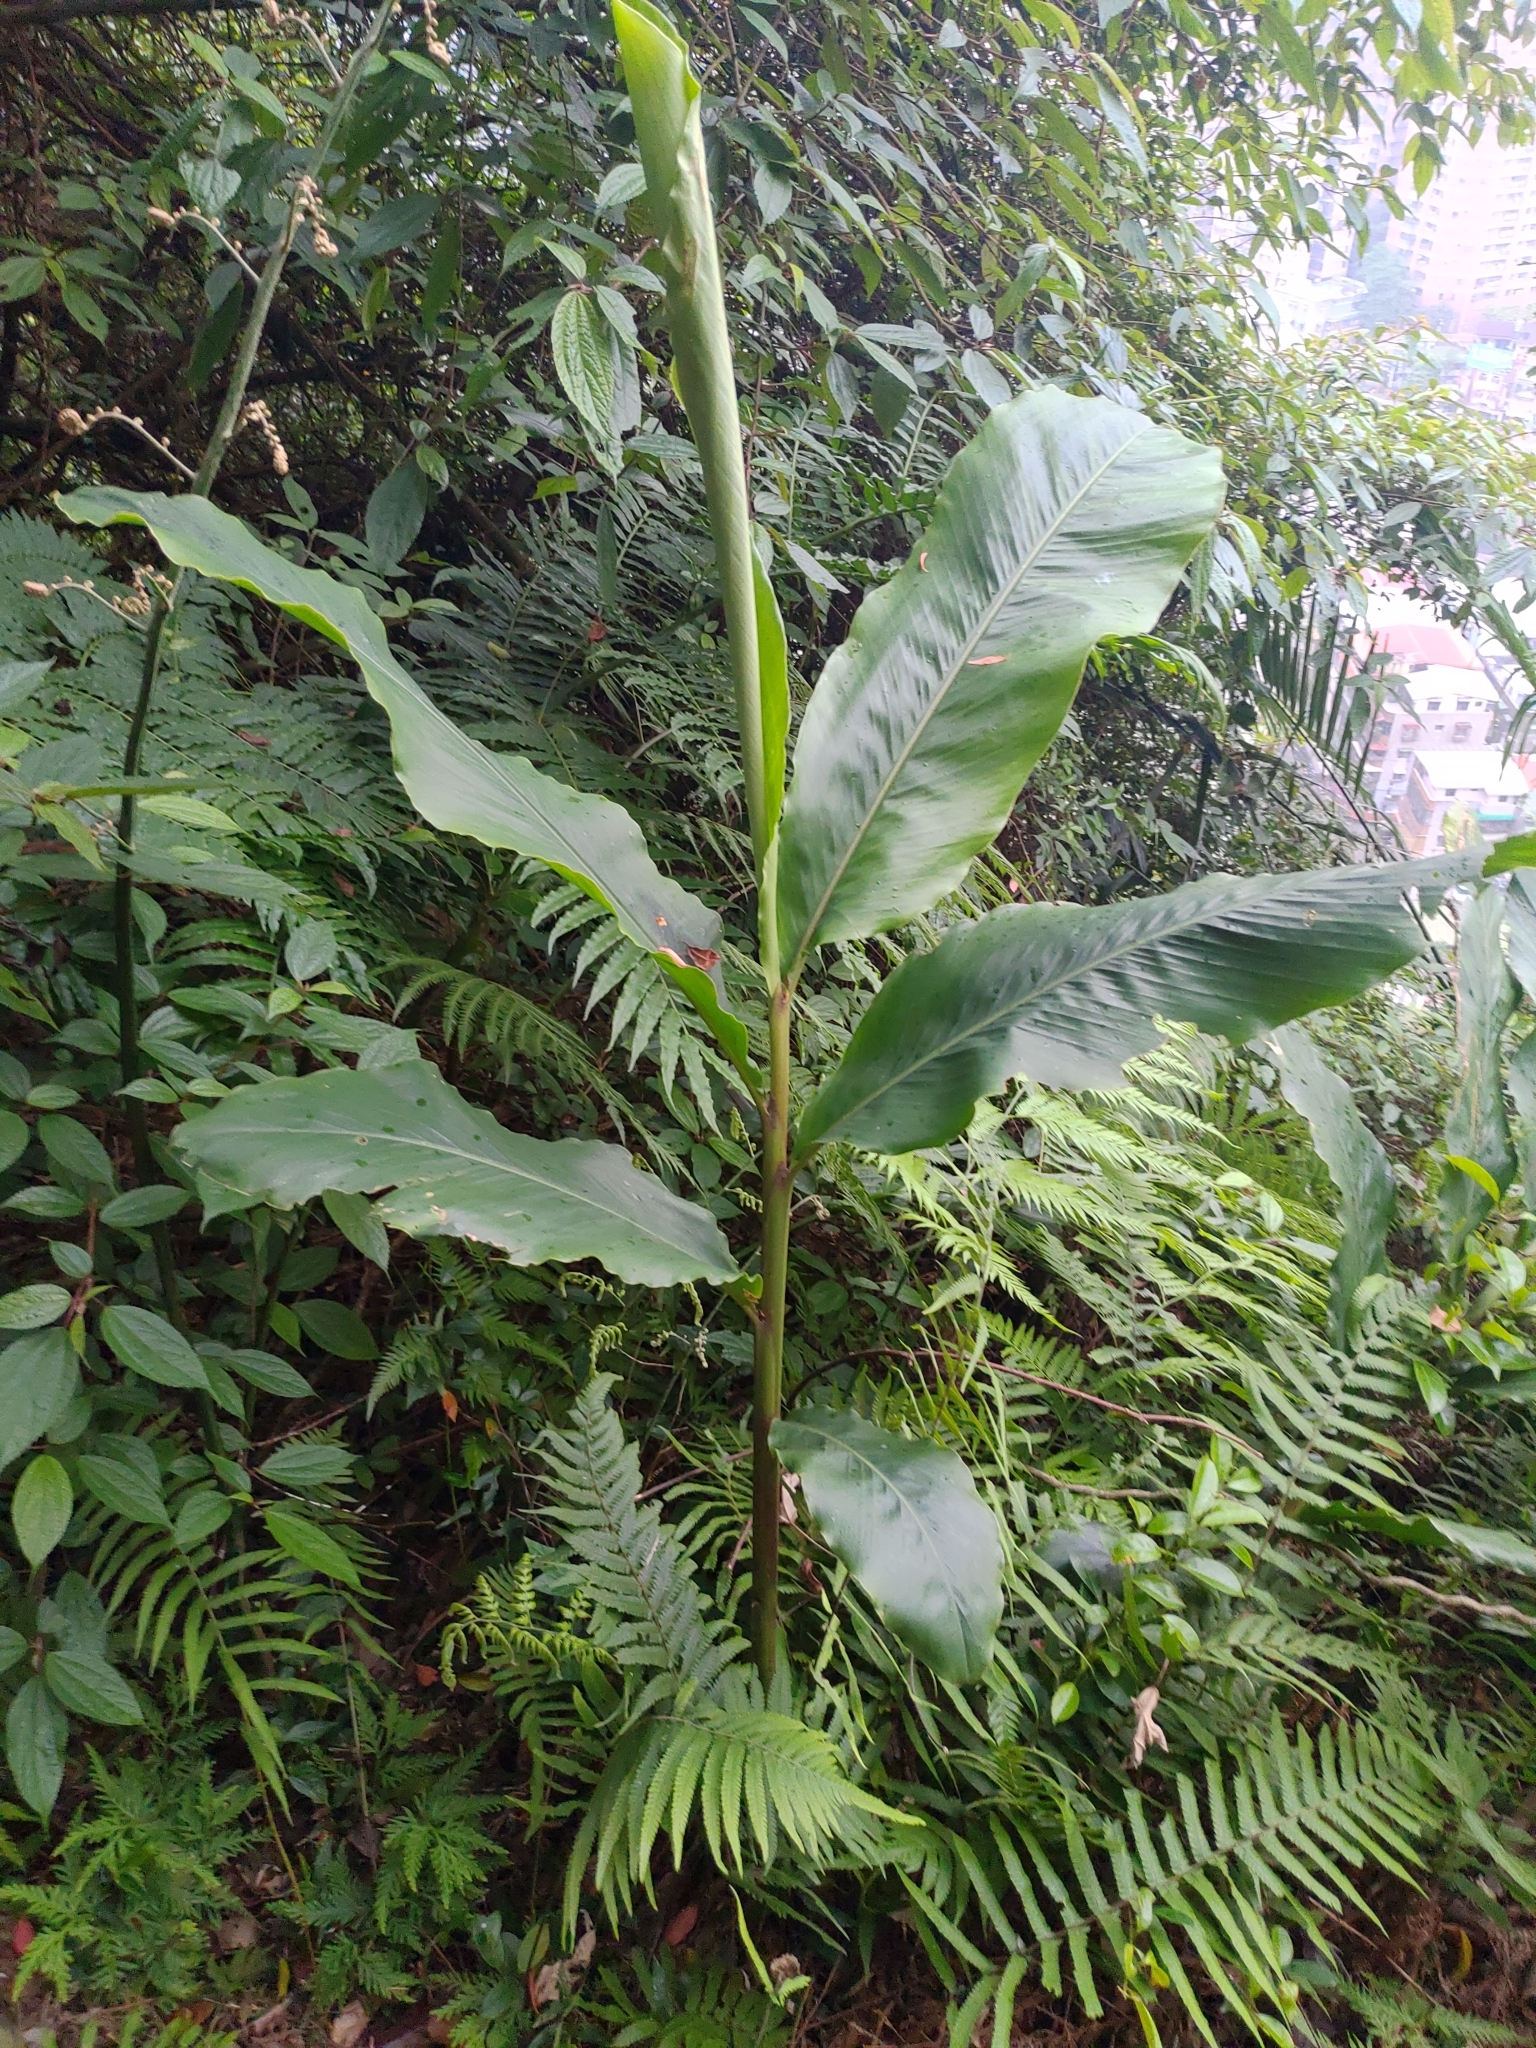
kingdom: Plantae
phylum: Tracheophyta
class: Liliopsida
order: Zingiberales
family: Zingiberaceae
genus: Alpinia
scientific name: Alpinia uraiensis
